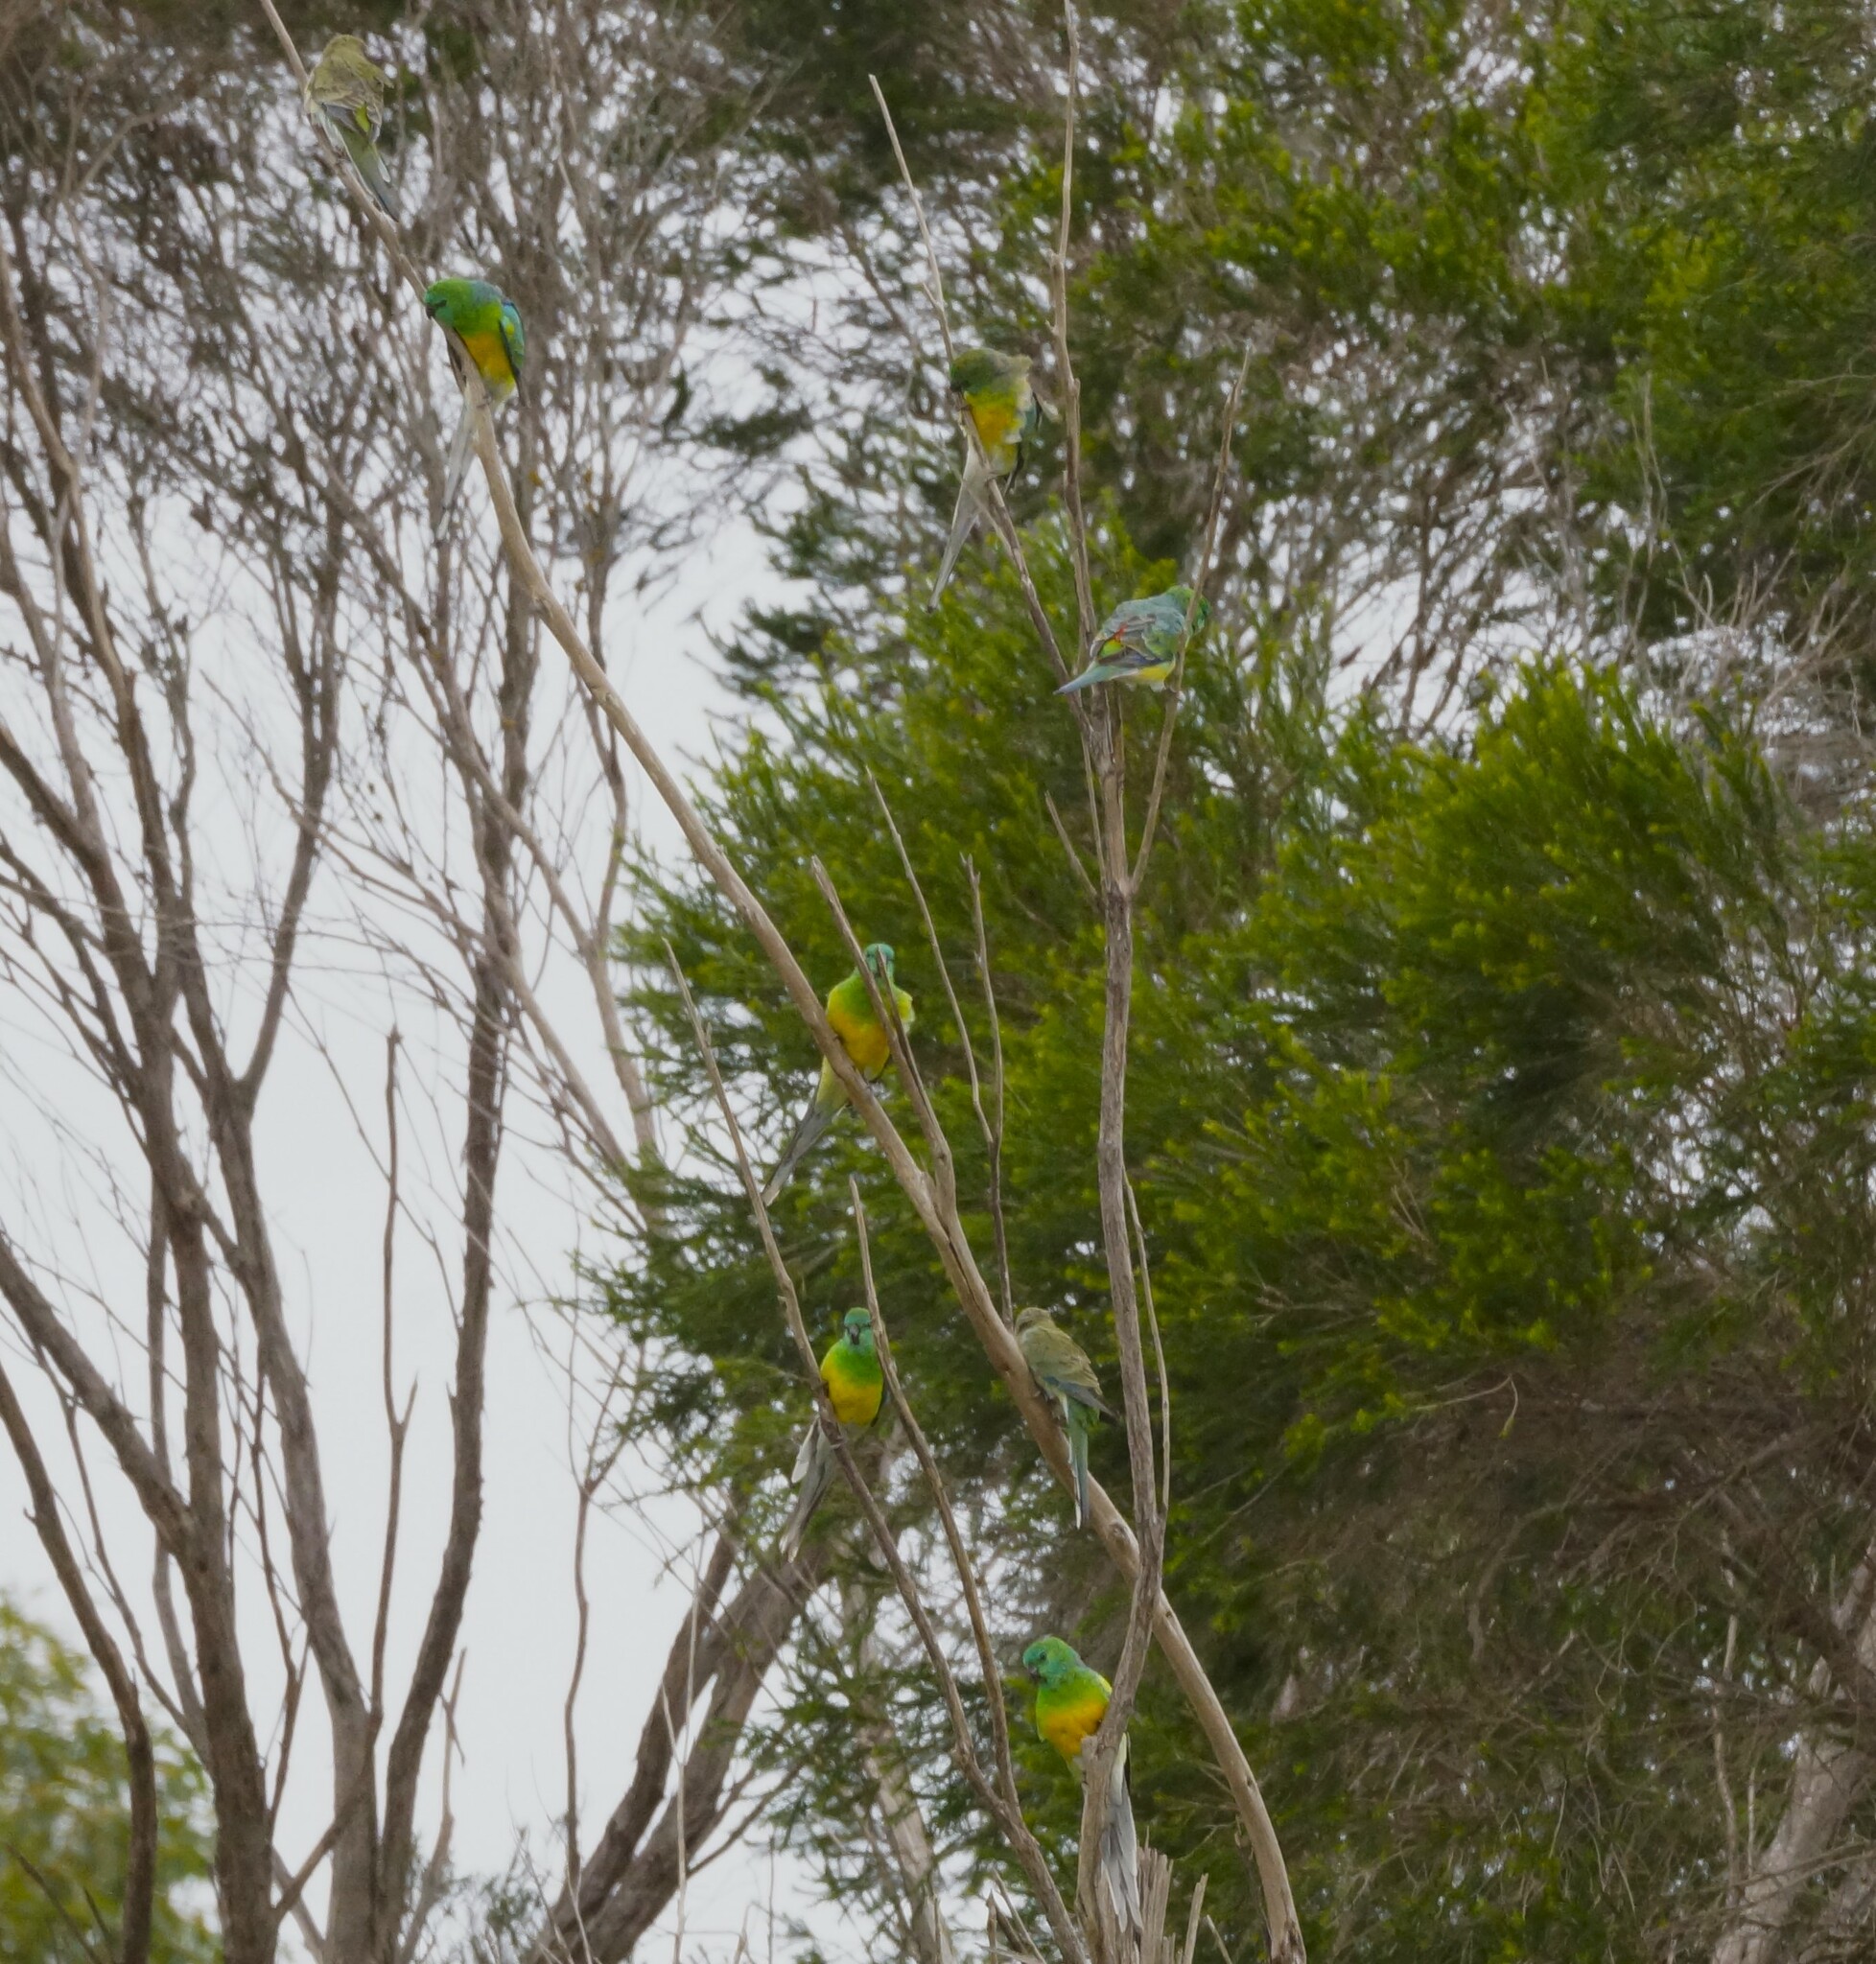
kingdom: Animalia
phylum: Chordata
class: Aves
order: Psittaciformes
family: Psittacidae
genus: Psephotus
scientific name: Psephotus haematonotus
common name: Red-rumped parrot
